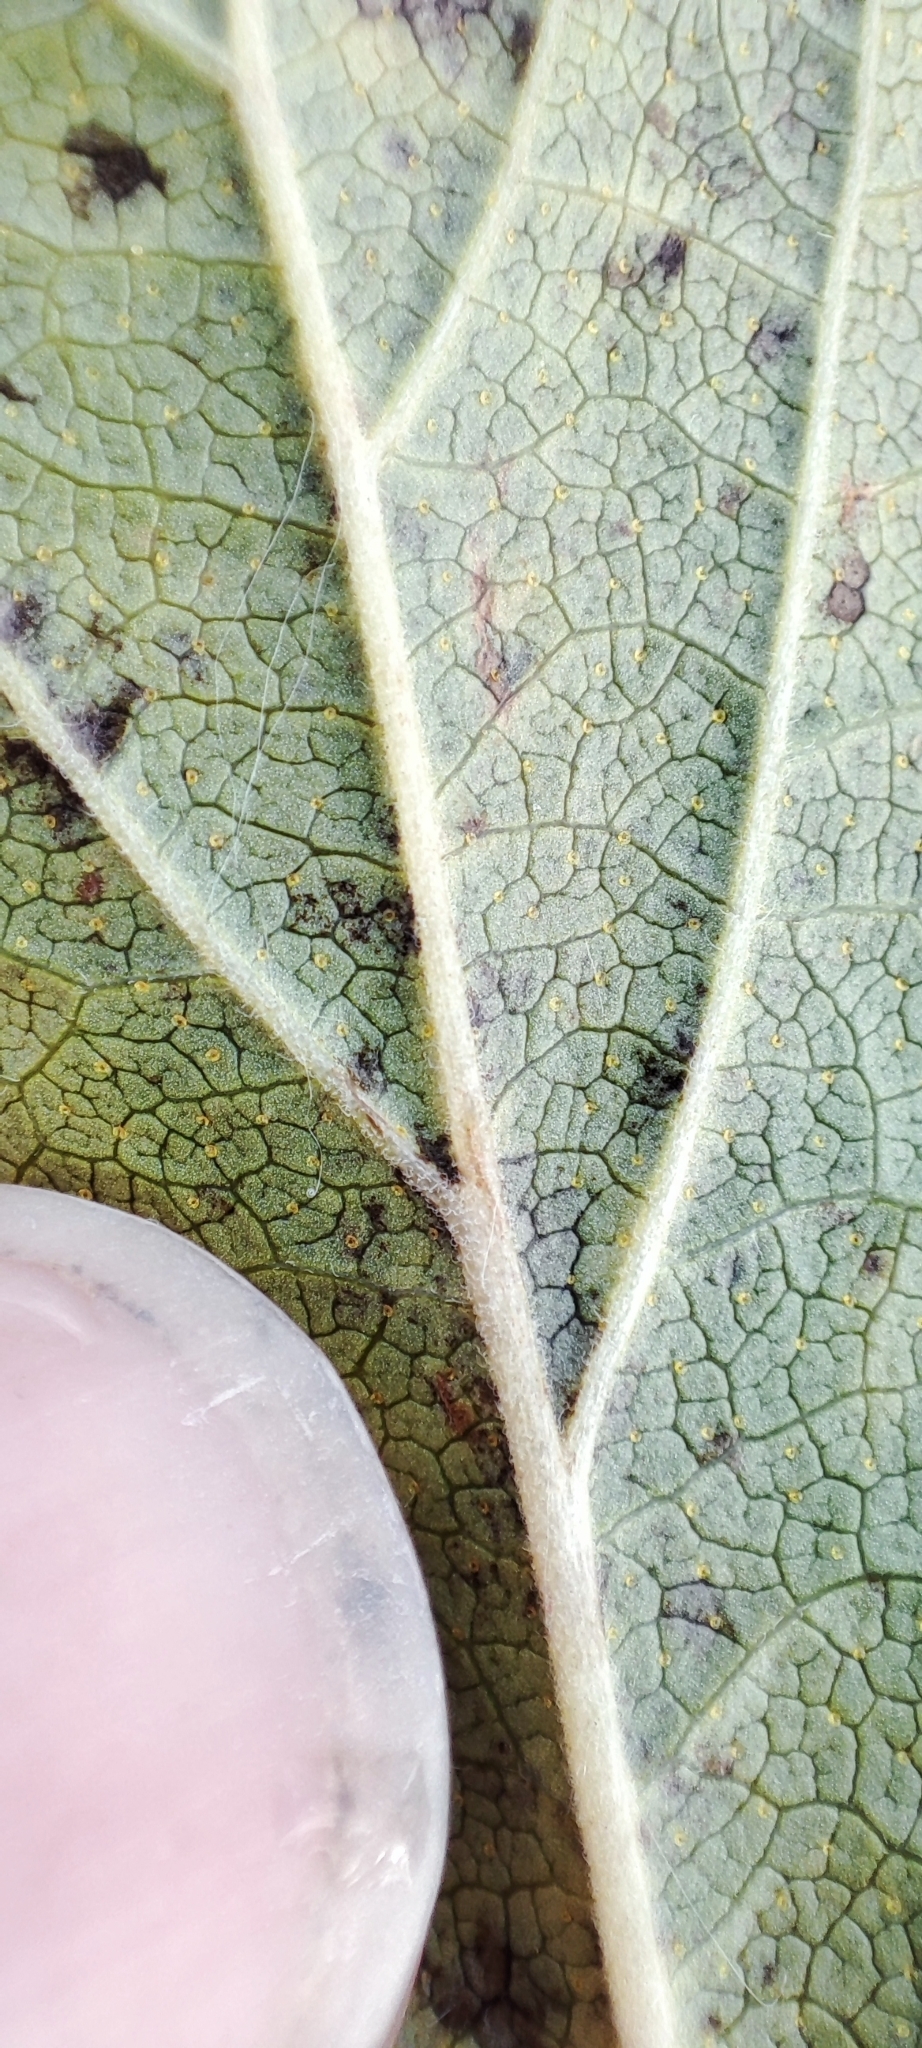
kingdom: Plantae
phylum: Tracheophyta
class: Magnoliopsida
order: Saxifragales
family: Grossulariaceae
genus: Ribes
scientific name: Ribes nigrum
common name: Black currant
